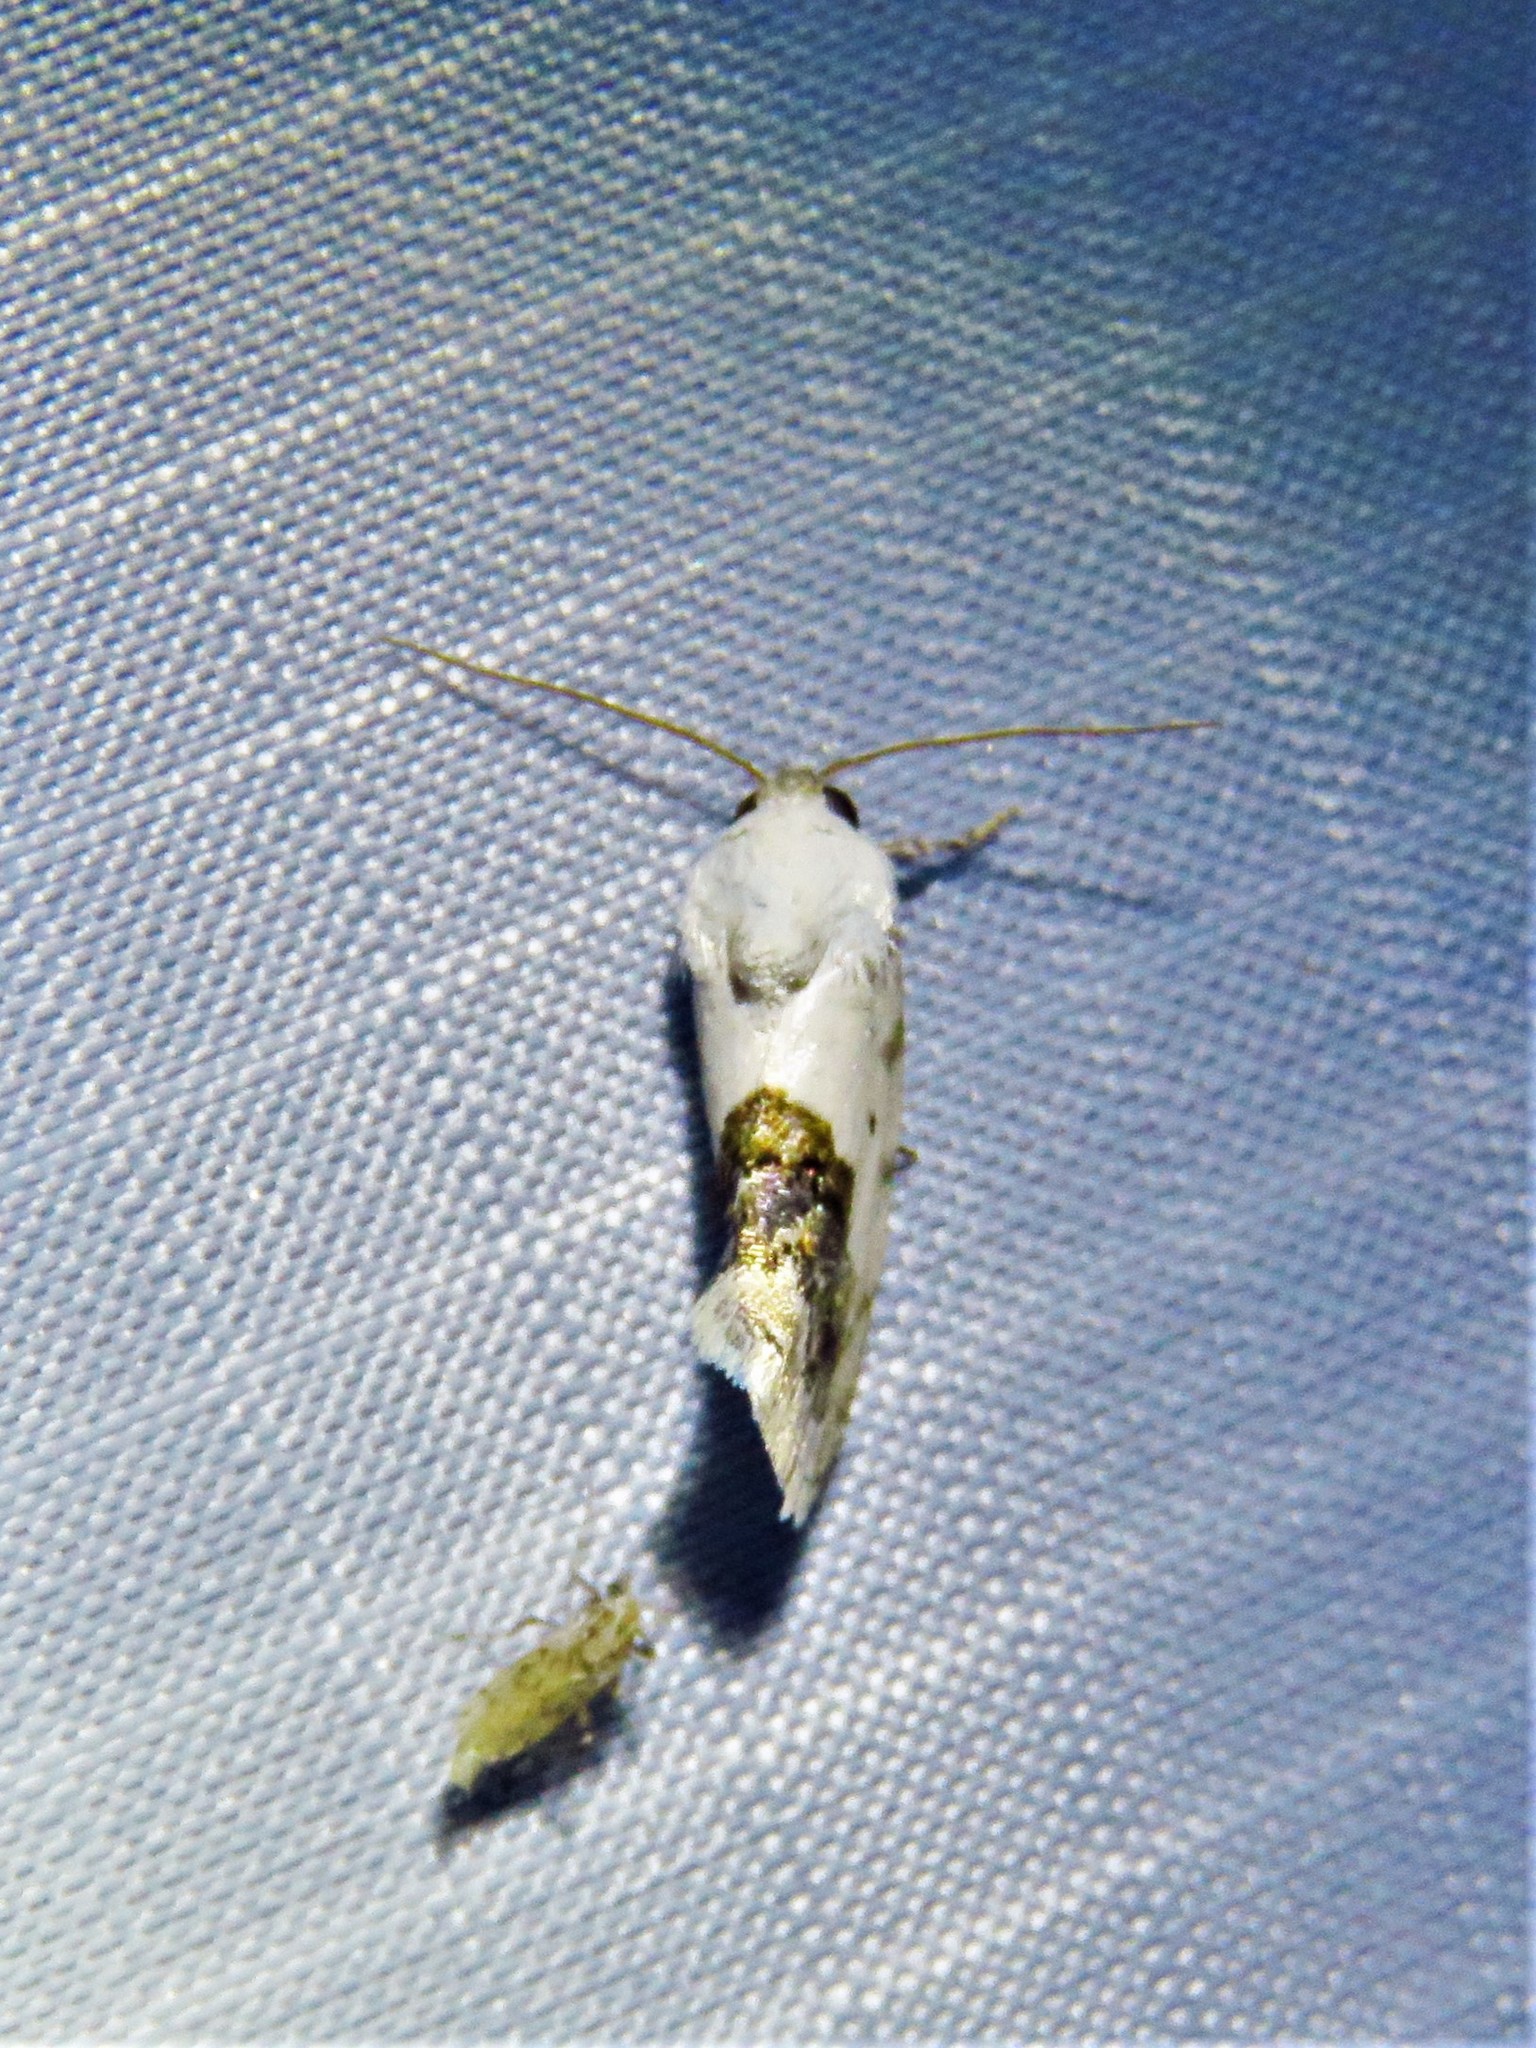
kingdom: Animalia
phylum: Arthropoda
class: Insecta
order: Lepidoptera
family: Noctuidae
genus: Acontia
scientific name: Acontia erastrioides
